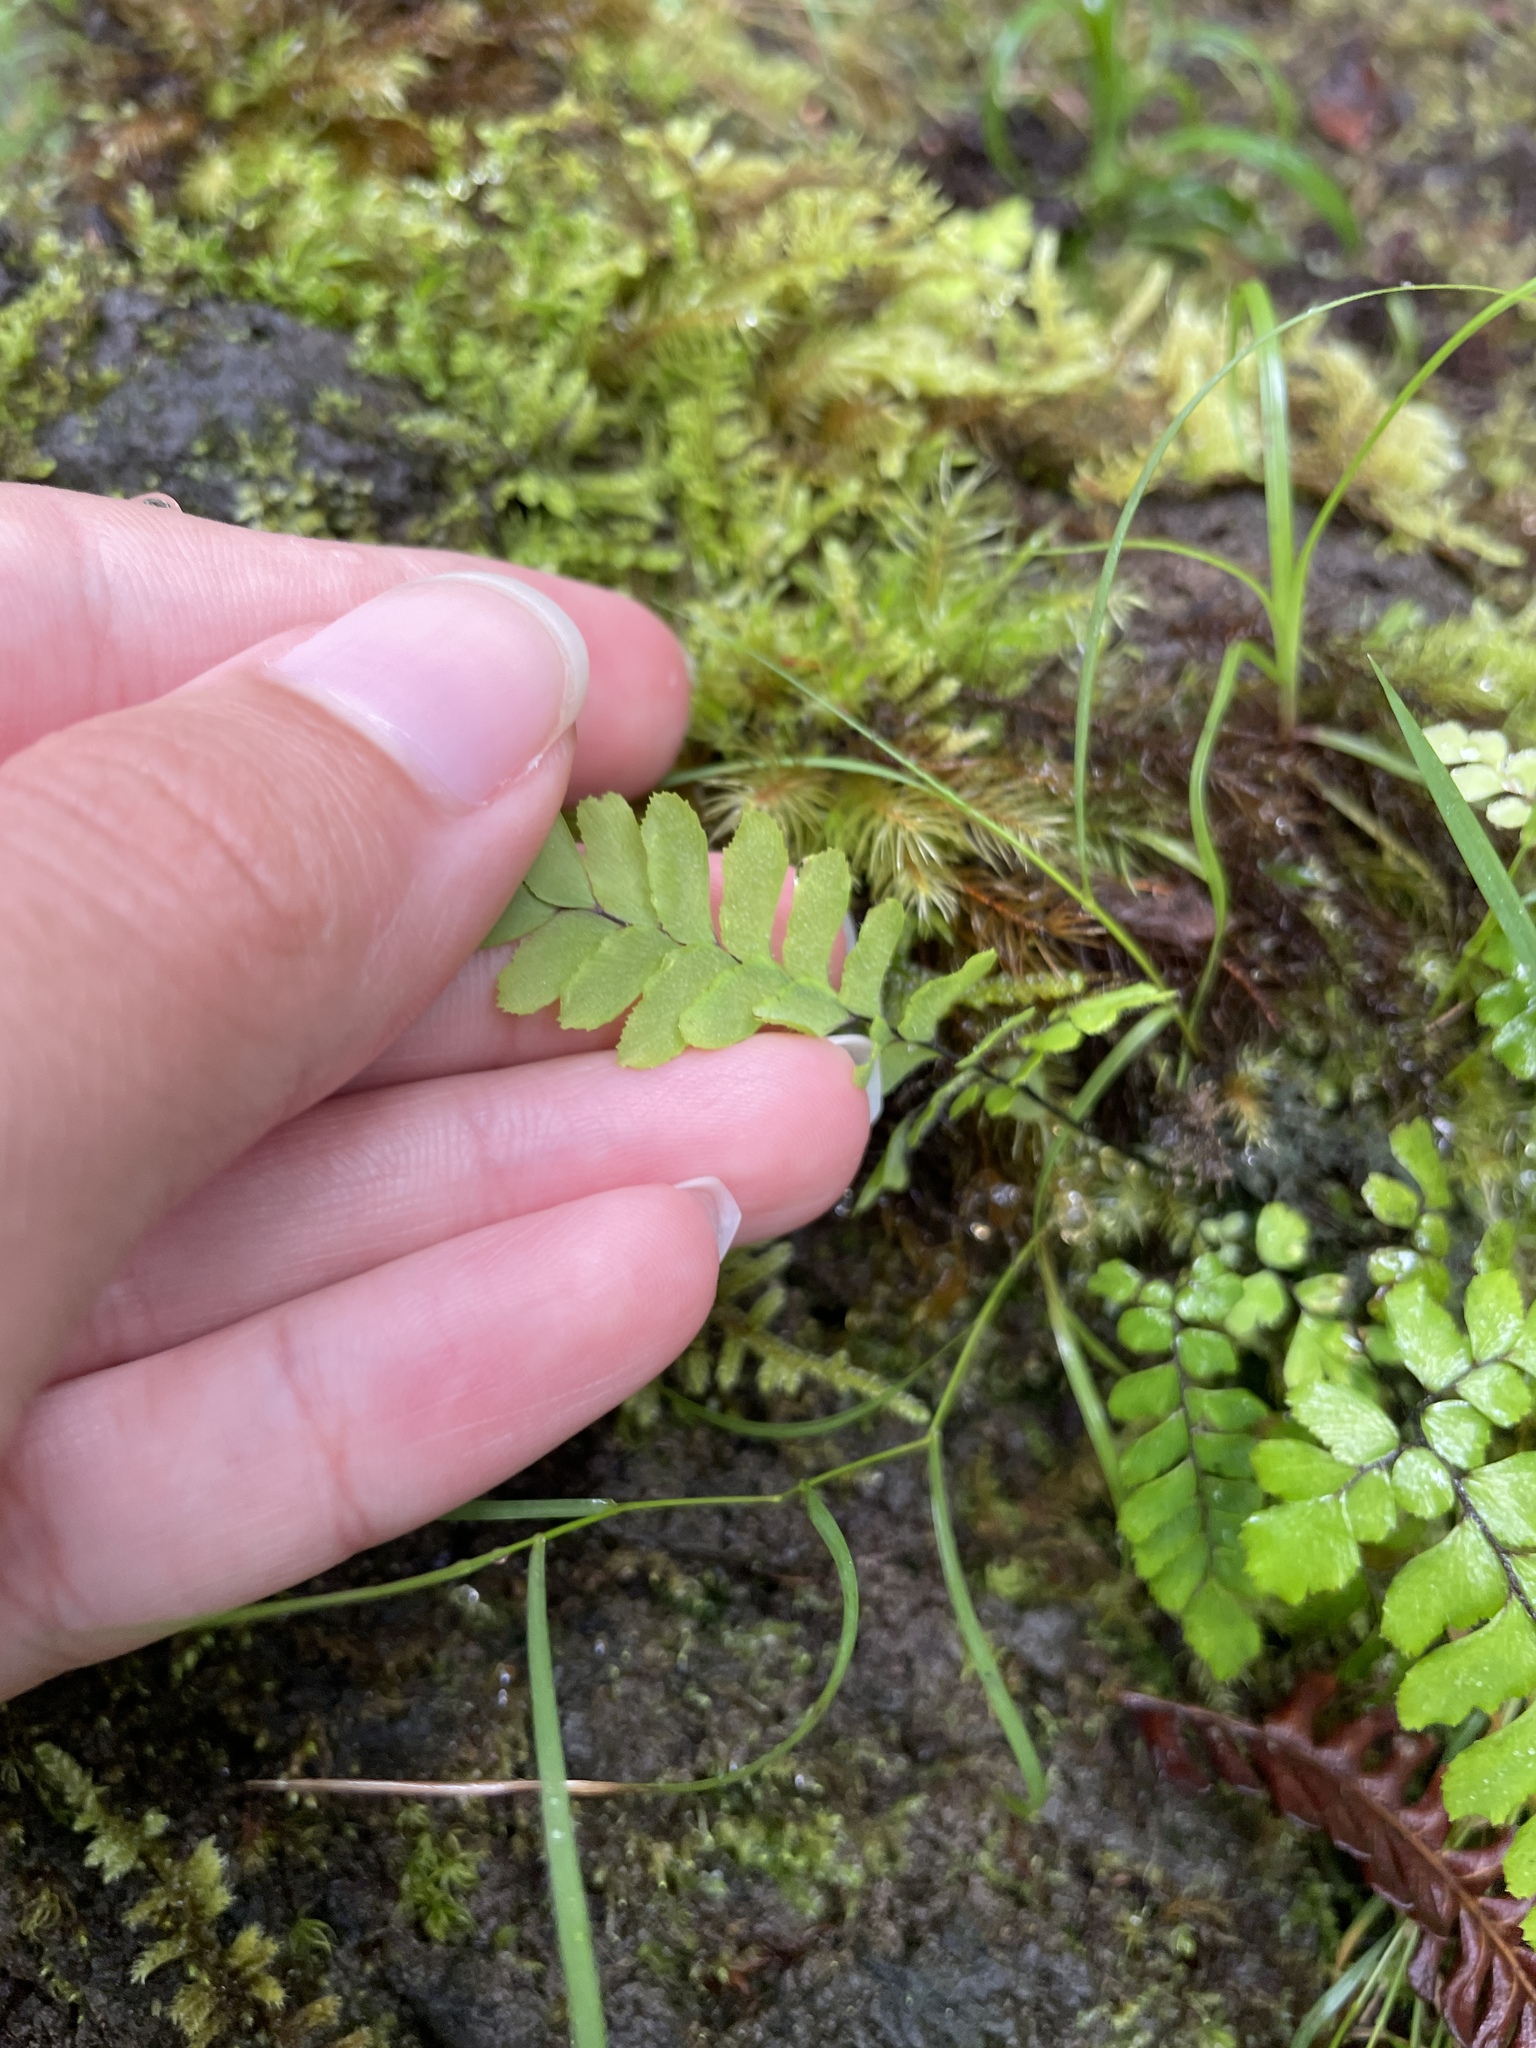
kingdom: Plantae
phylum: Tracheophyta
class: Polypodiopsida
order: Polypodiales
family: Pteridaceae
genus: Adiantum
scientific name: Adiantum hispidulum
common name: Rough maidenhair
